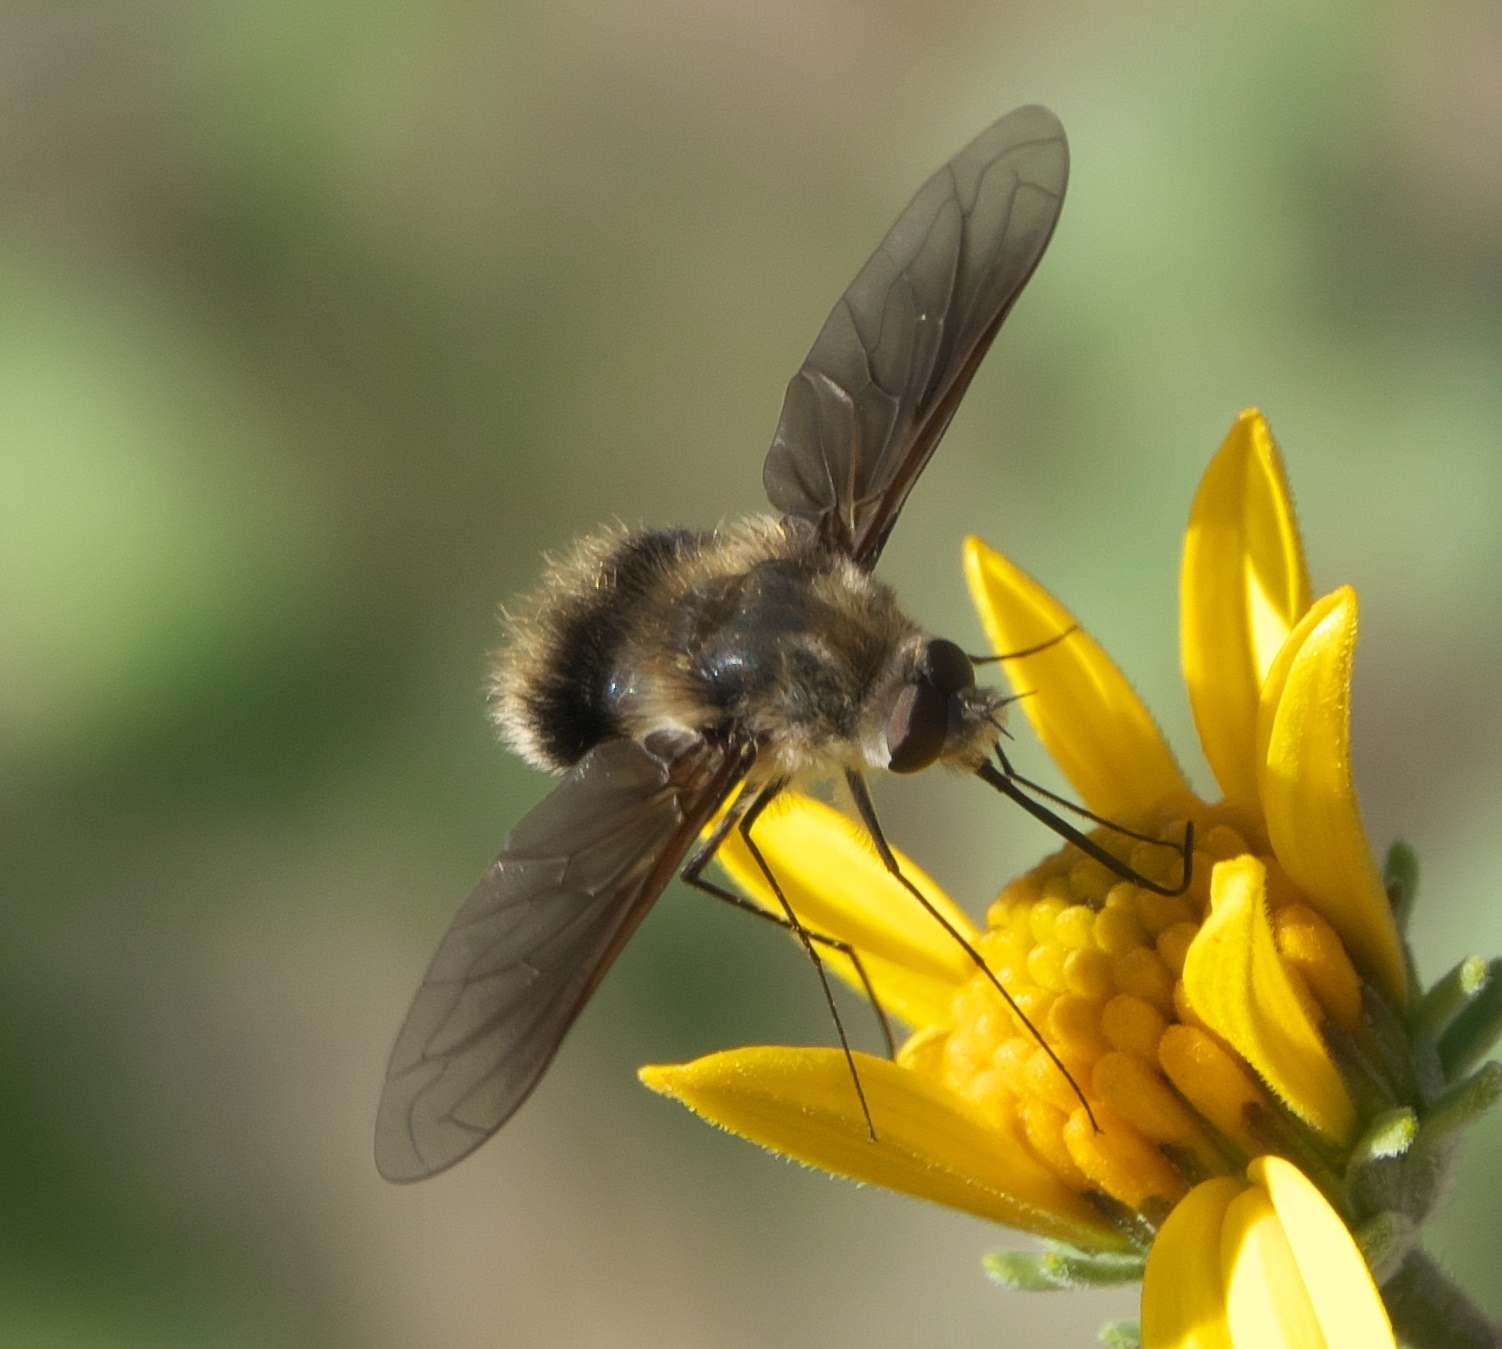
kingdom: Animalia
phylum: Arthropoda
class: Insecta
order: Diptera
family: Bombyliidae
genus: Triploechus
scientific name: Triploechus novus
